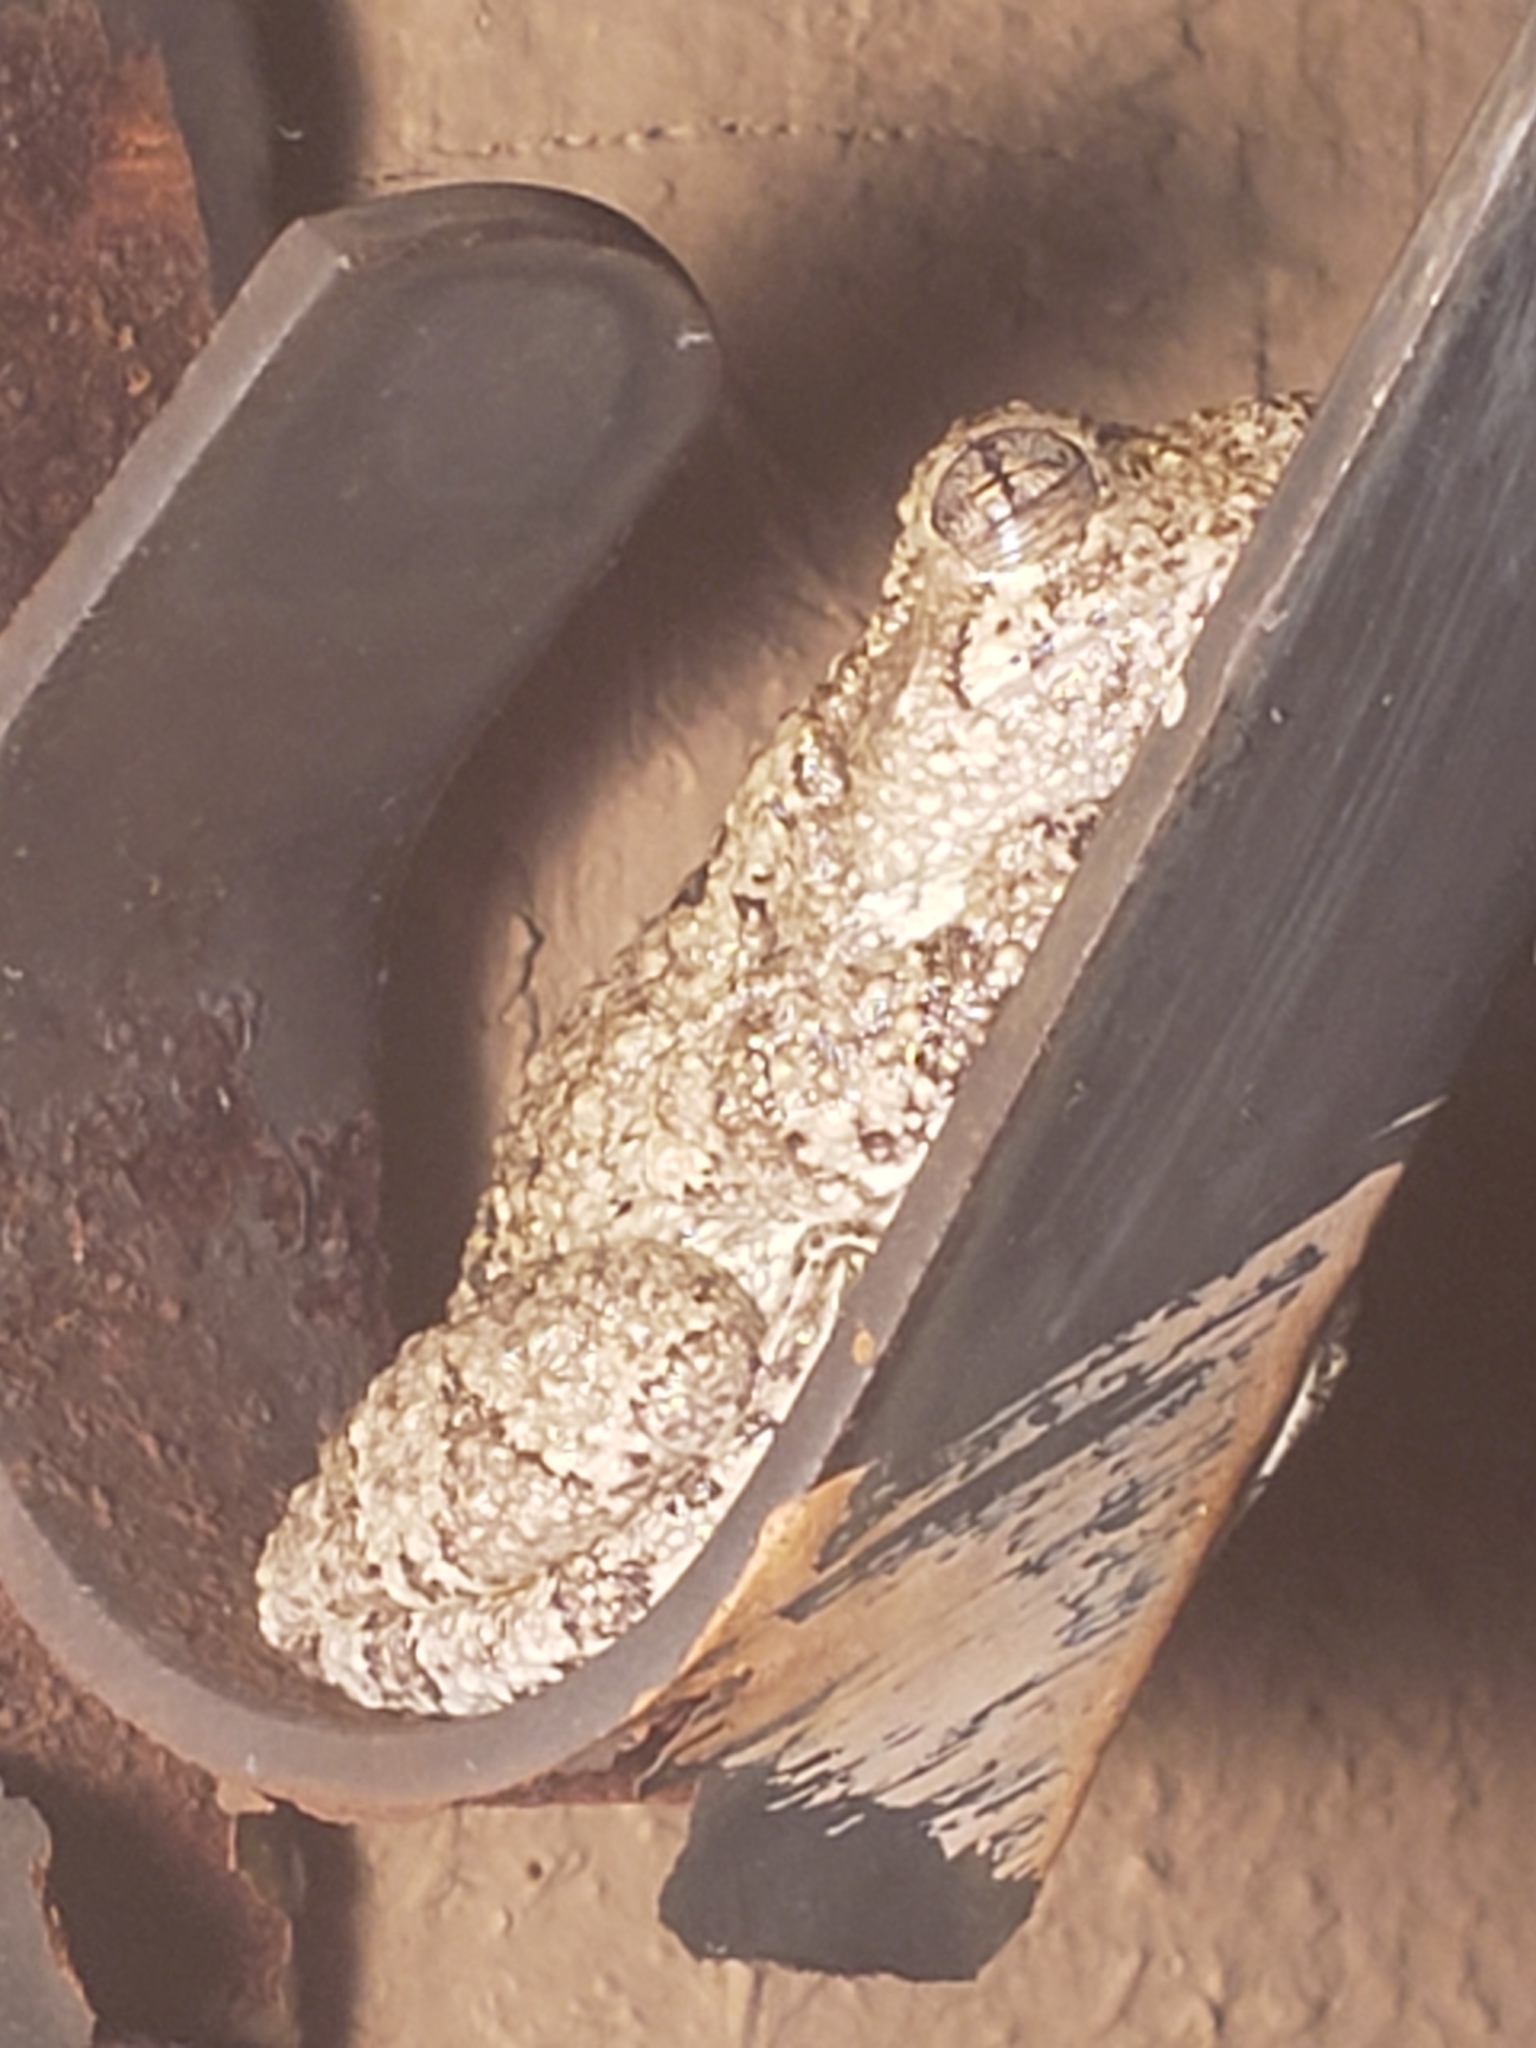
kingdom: Animalia
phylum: Chordata
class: Amphibia
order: Anura
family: Hylidae
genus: Hyla
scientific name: Hyla
